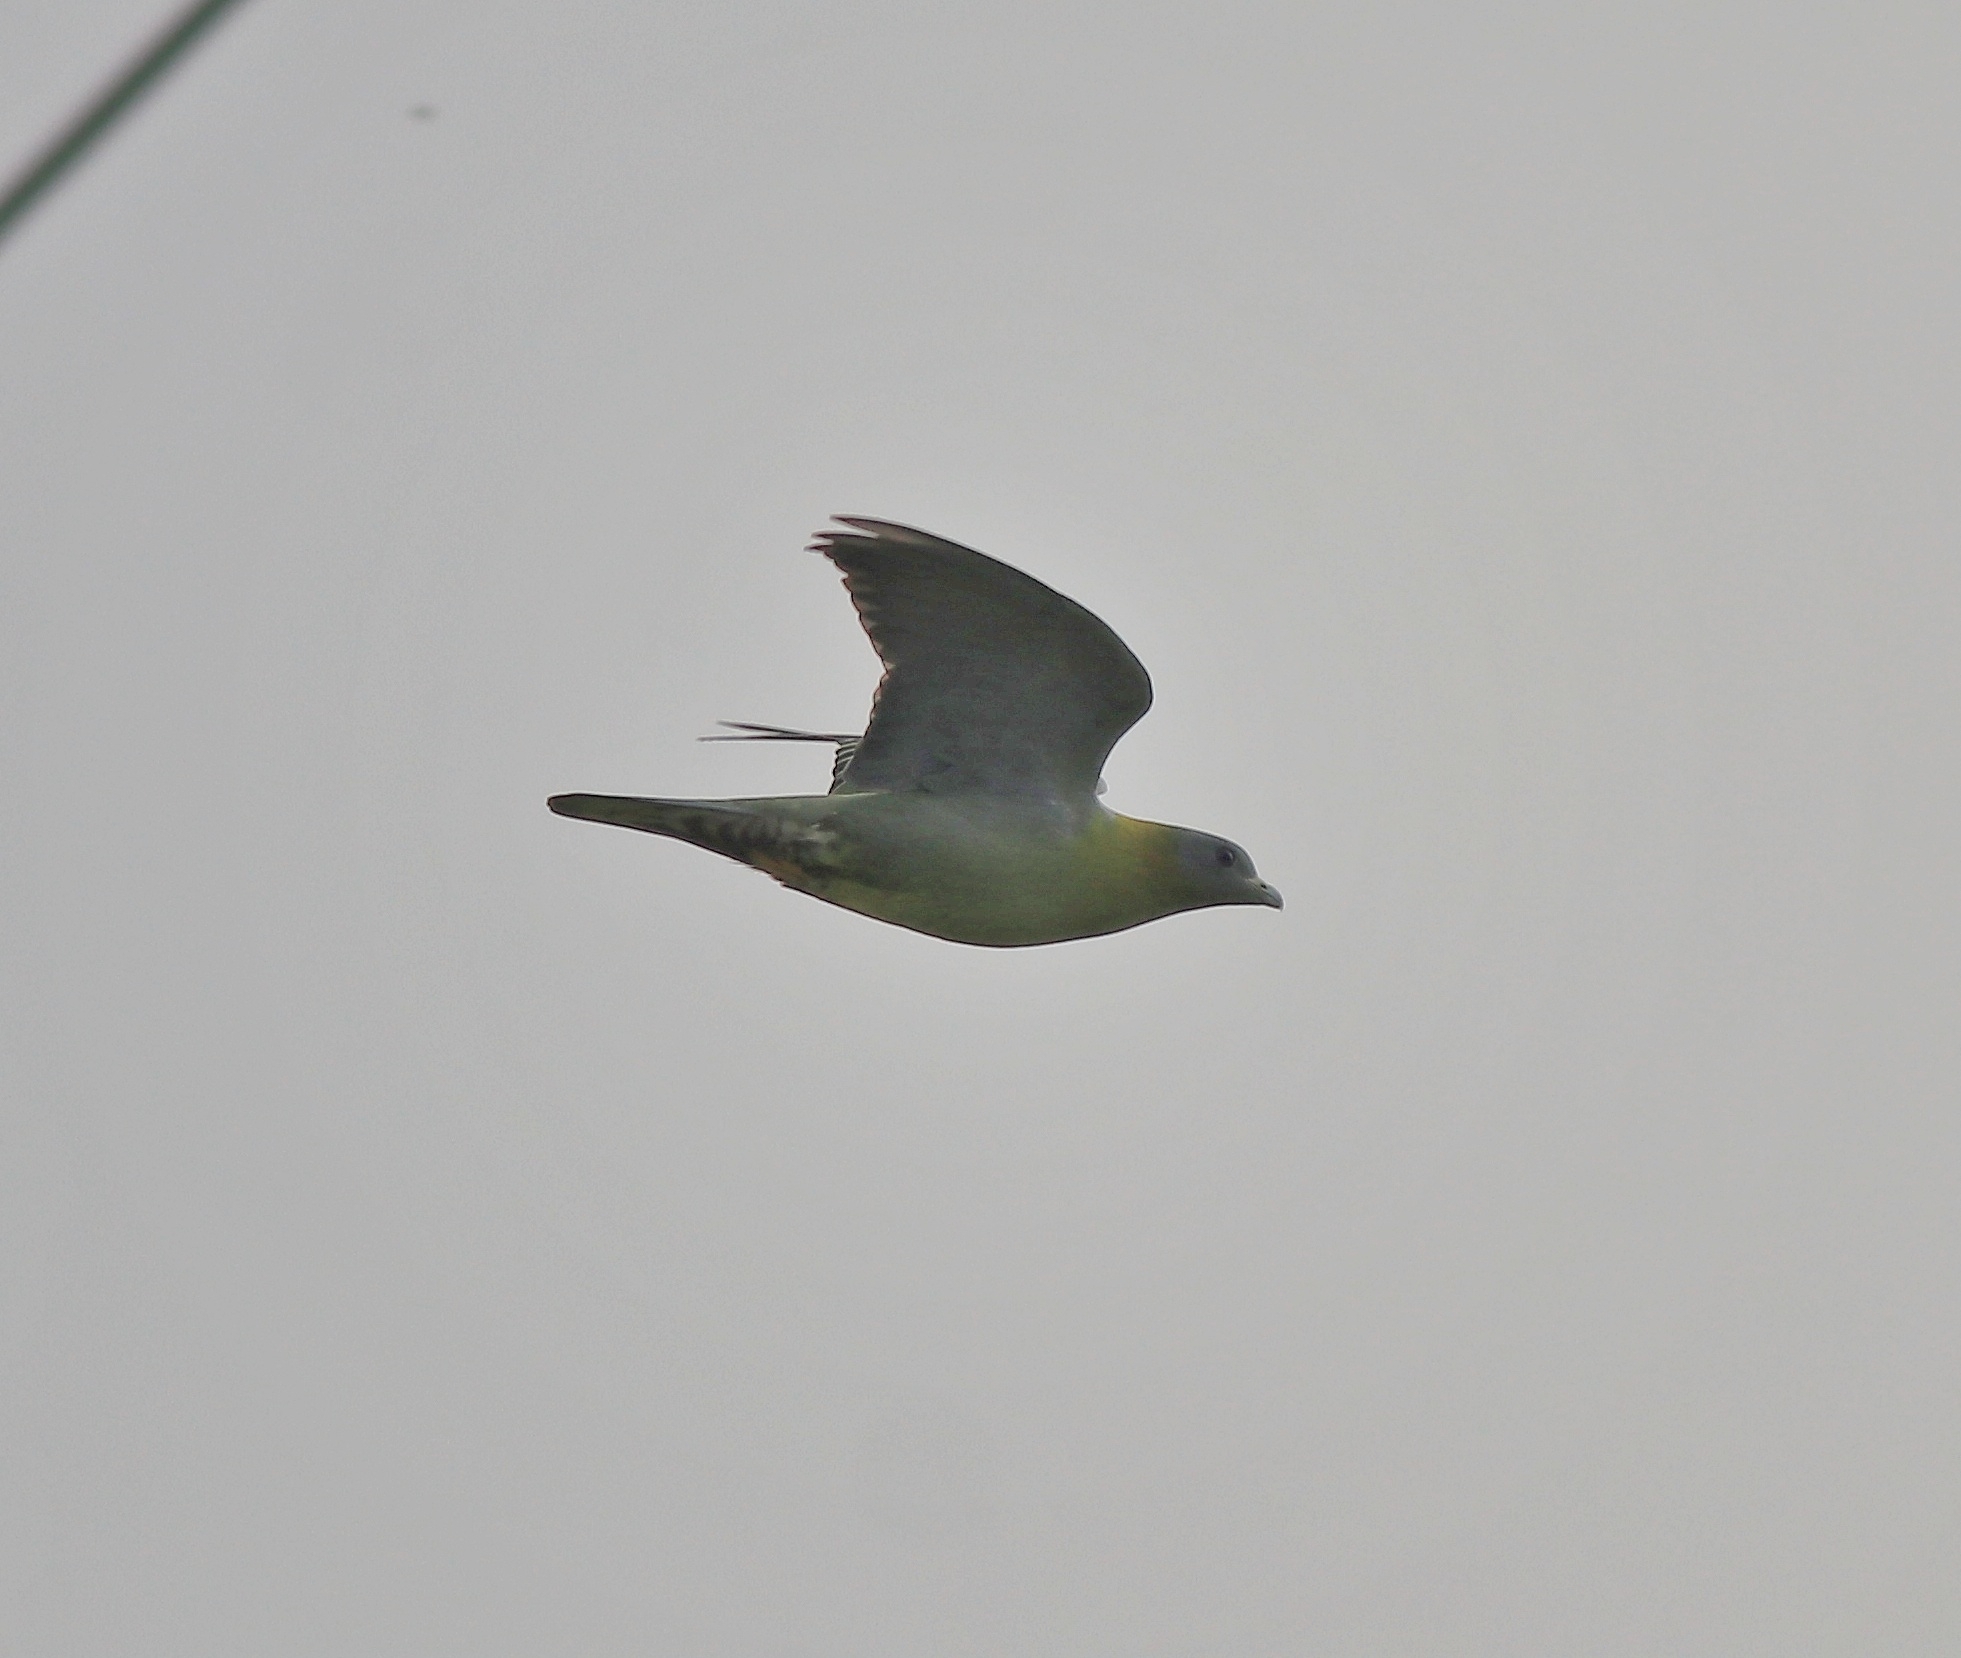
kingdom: Animalia
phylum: Chordata
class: Aves
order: Columbiformes
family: Columbidae
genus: Treron
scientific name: Treron phoenicopterus
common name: Yellow-footed green pigeon
